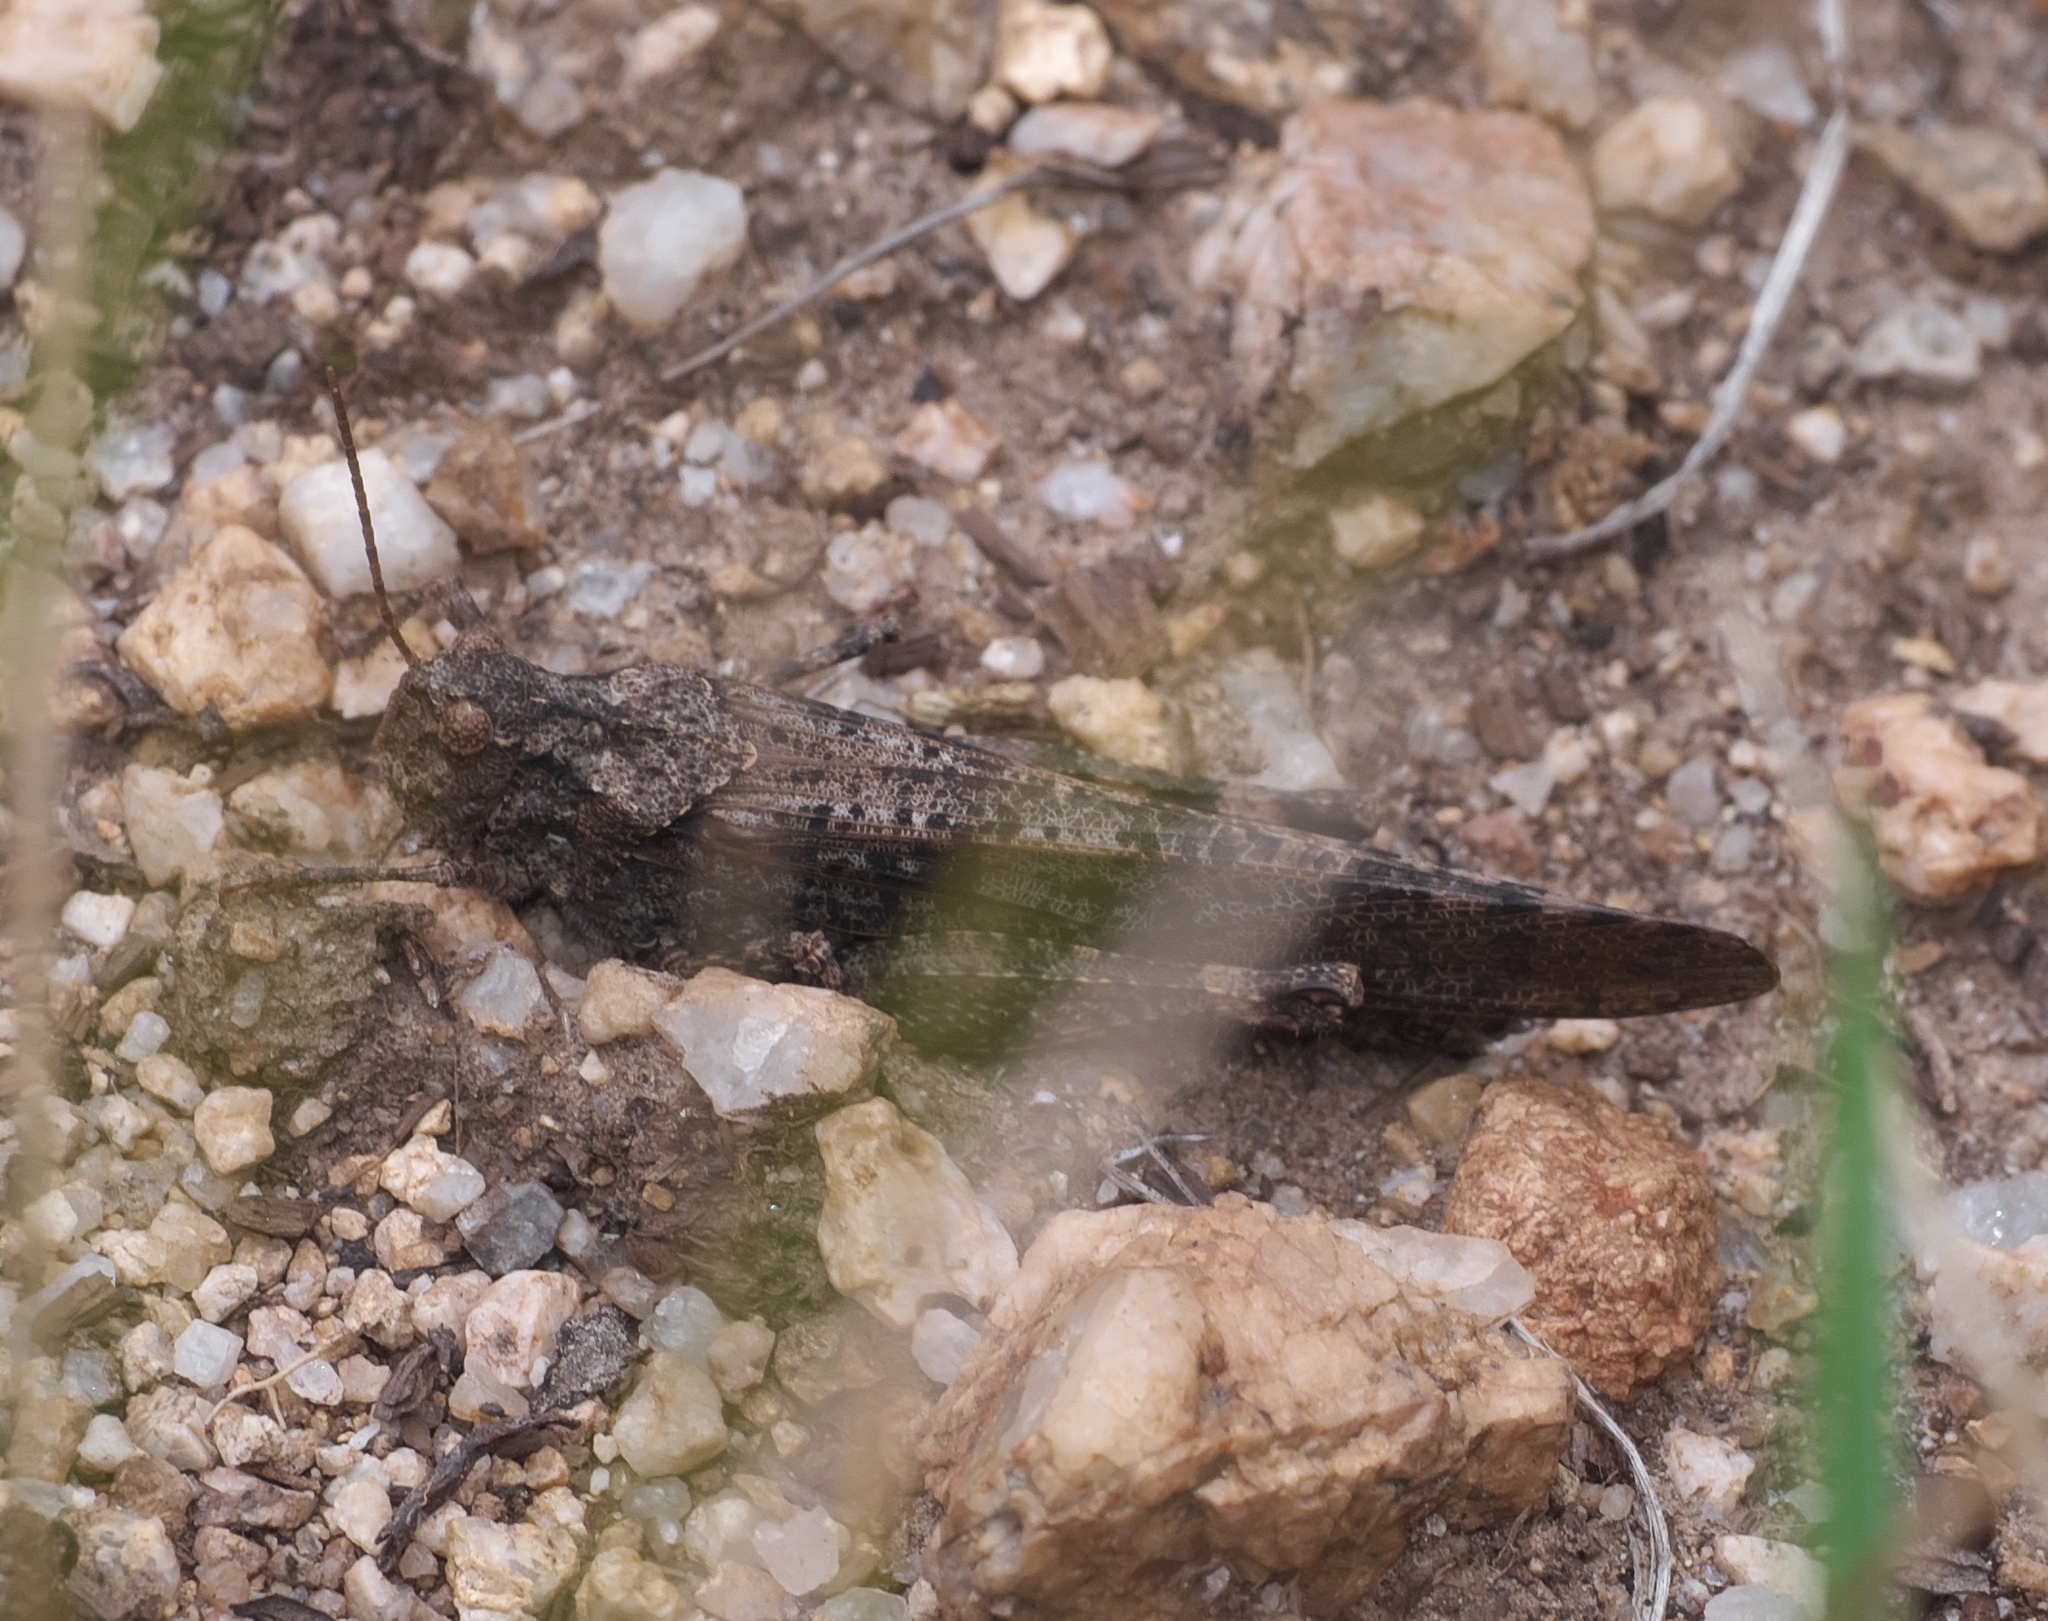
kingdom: Animalia
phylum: Arthropoda
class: Insecta
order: Orthoptera
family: Acrididae
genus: Trimerotropis
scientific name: Trimerotropis verruculata
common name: Crackling forest grasshopper
